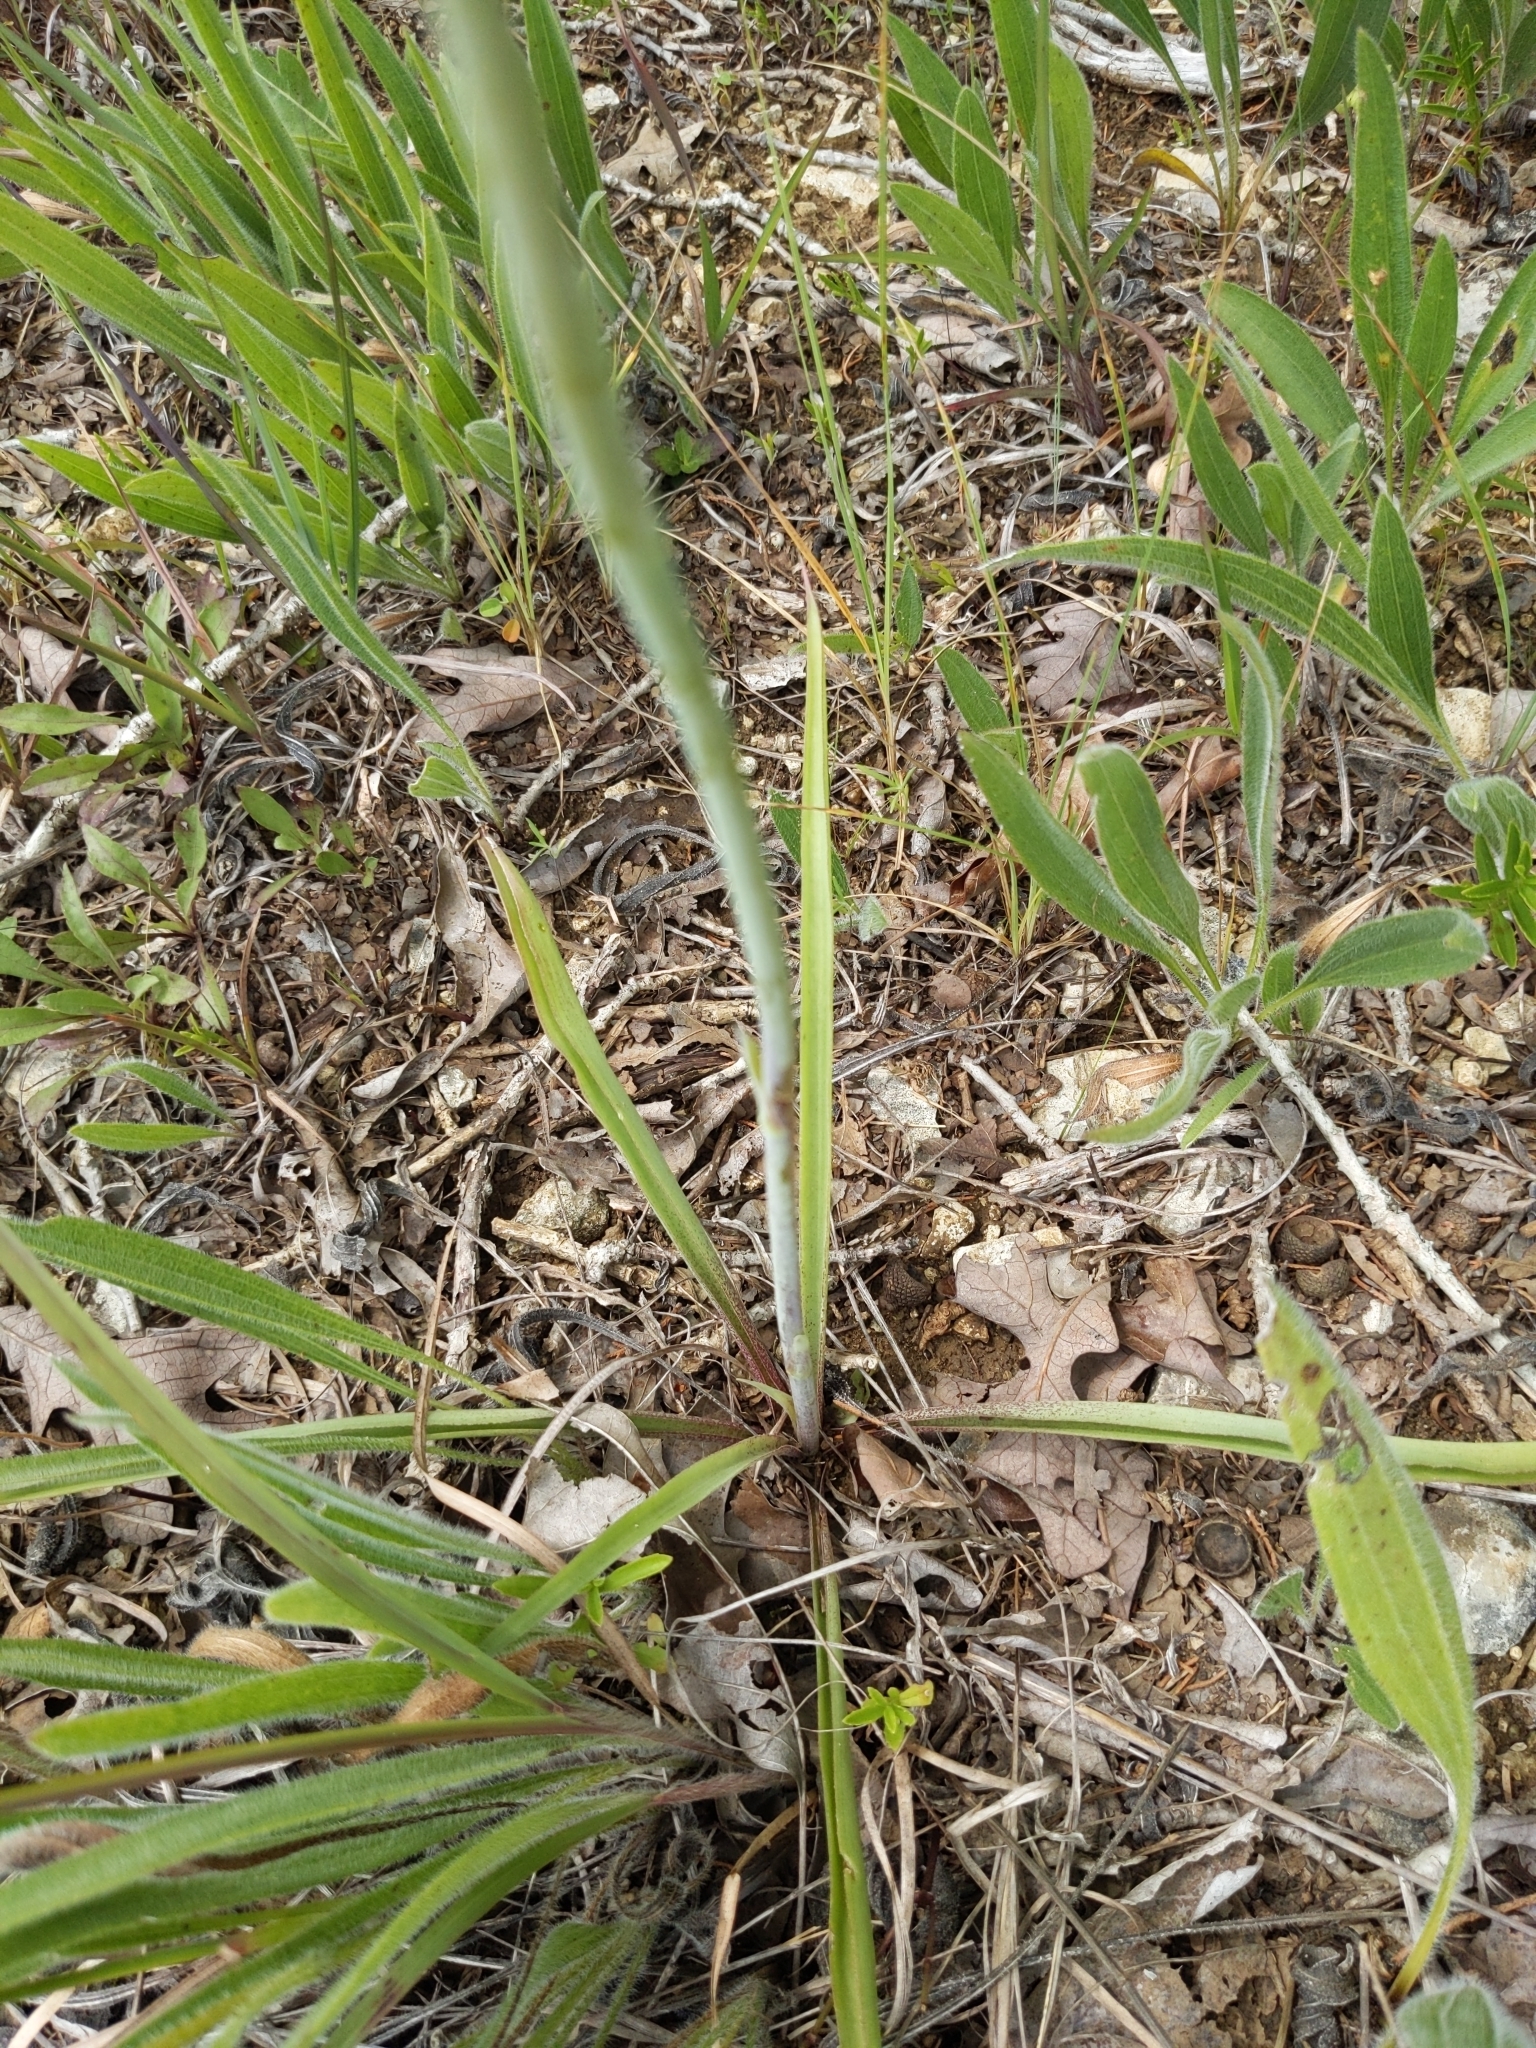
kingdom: Plantae
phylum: Tracheophyta
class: Liliopsida
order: Asparagales
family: Asparagaceae
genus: Agave
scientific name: Agave virginica
